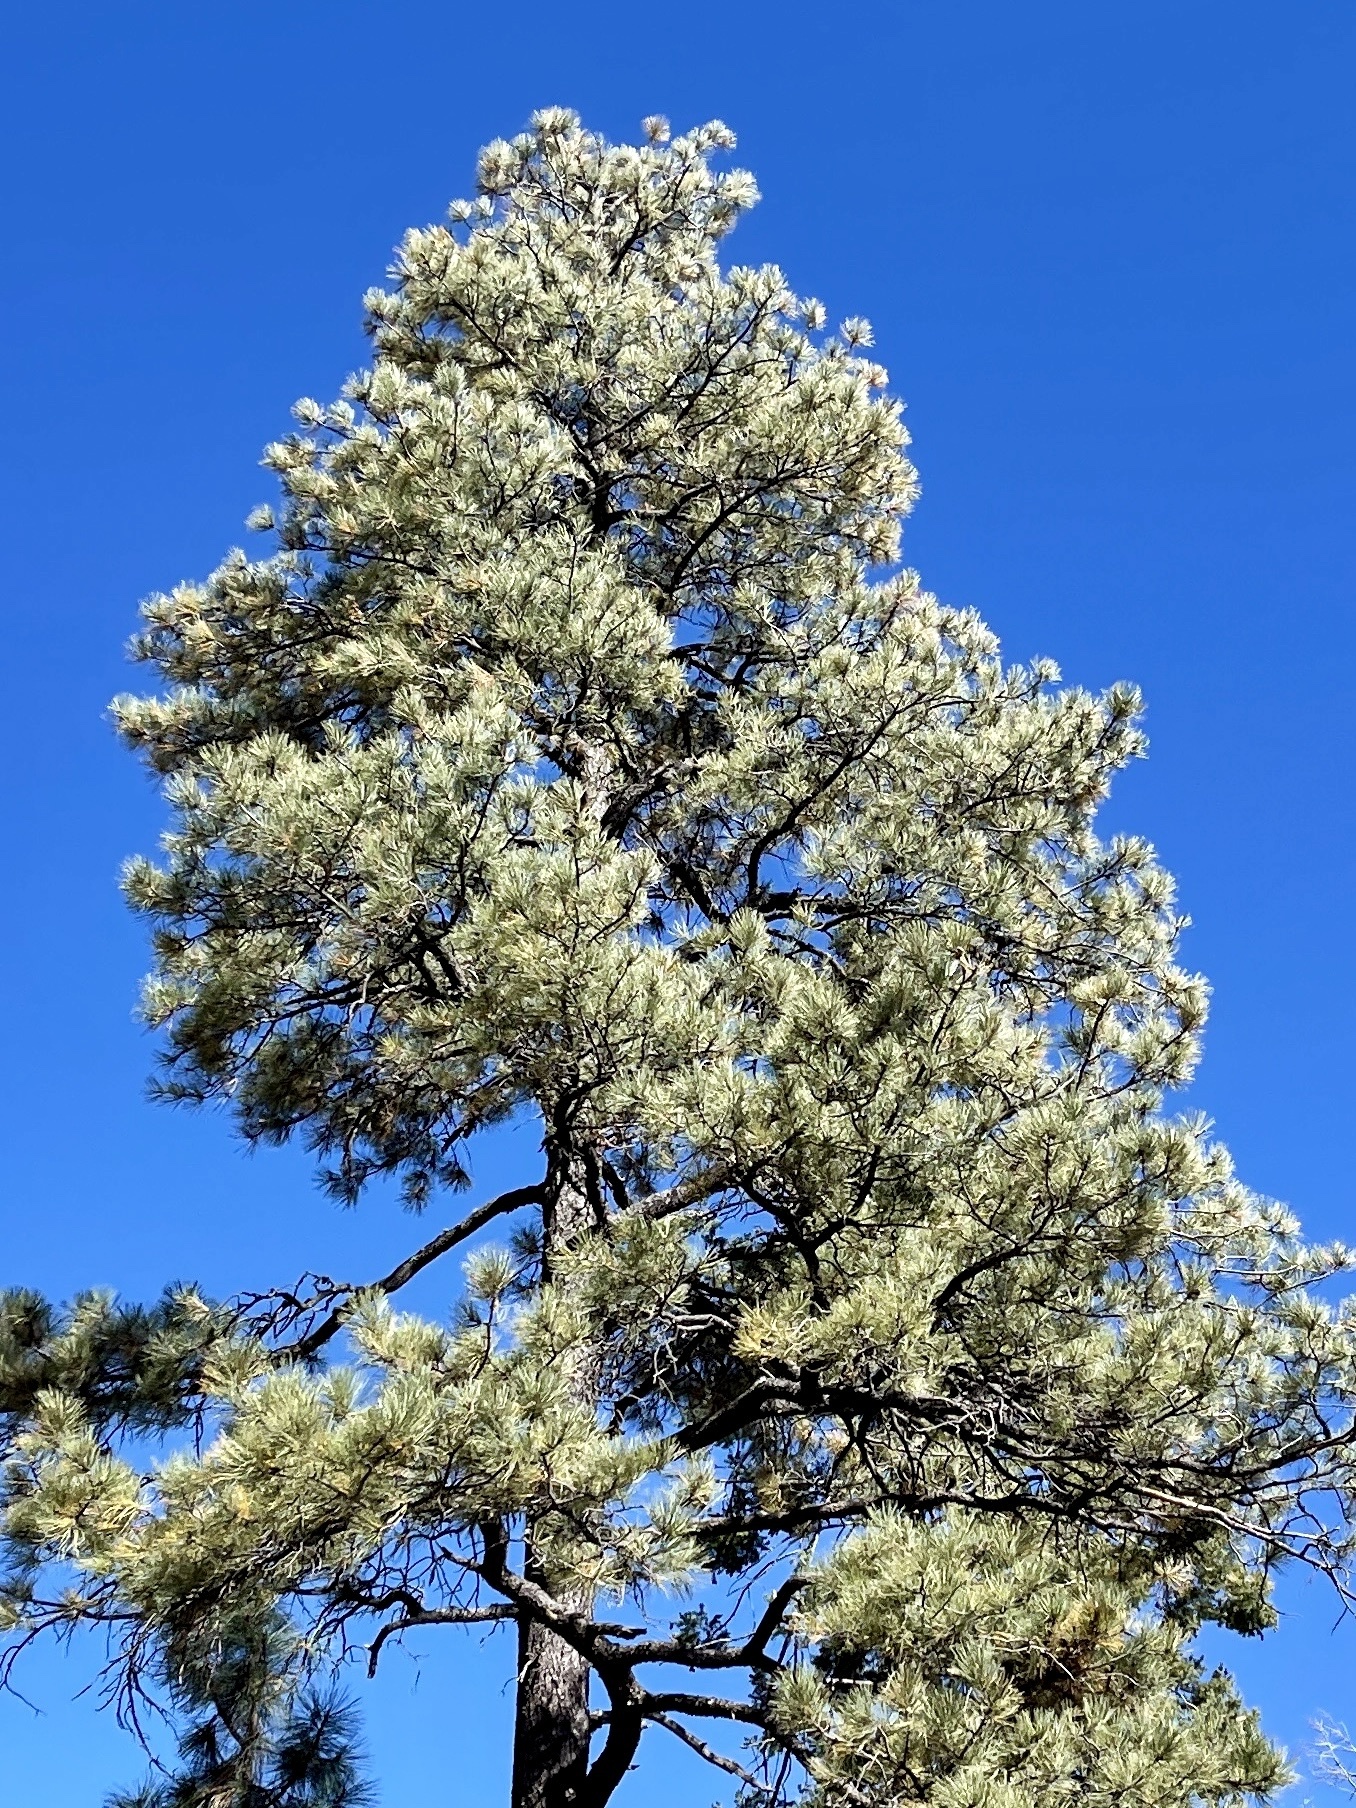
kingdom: Plantae
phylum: Tracheophyta
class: Pinopsida
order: Pinales
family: Pinaceae
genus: Pinus
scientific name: Pinus ponderosa
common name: Western yellow-pine
